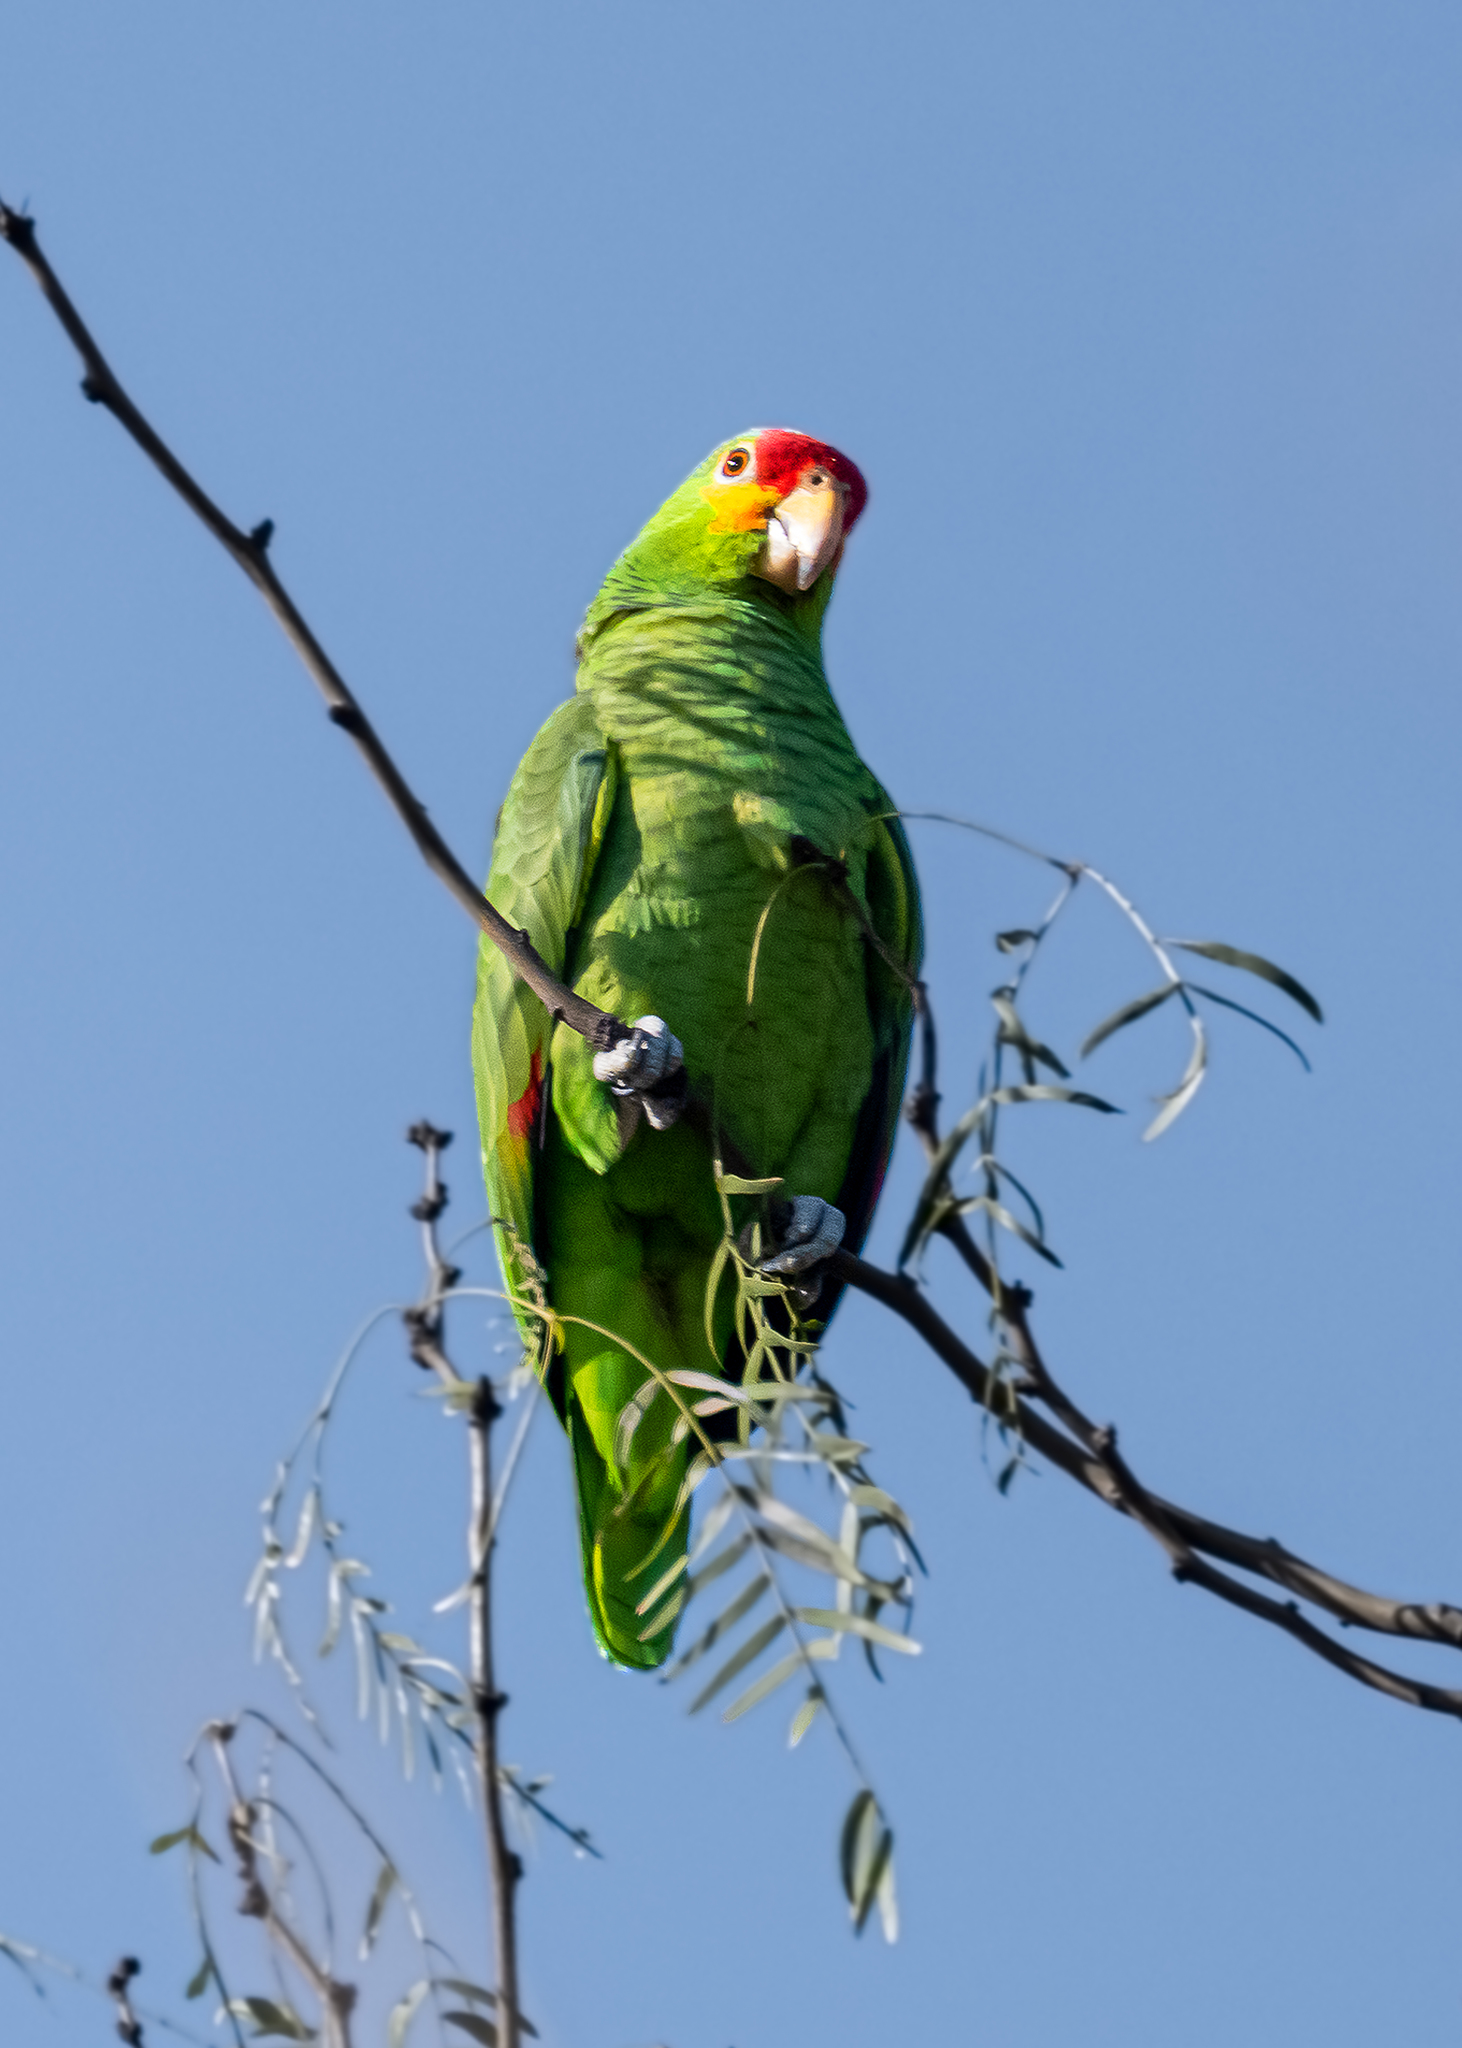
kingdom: Animalia
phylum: Chordata
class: Aves
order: Psittaciformes
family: Psittacidae
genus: Amazona
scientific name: Amazona autumnalis
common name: Red-lored amazon
